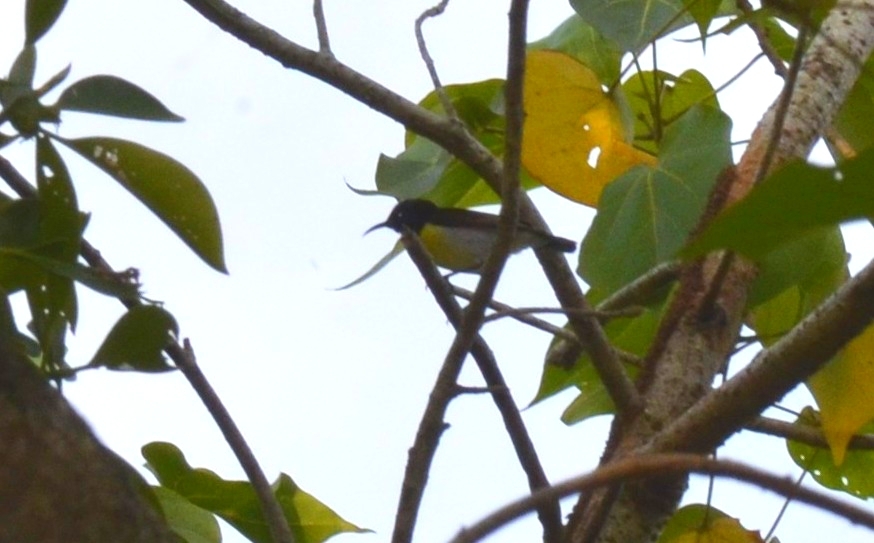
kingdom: Animalia
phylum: Chordata
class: Aves
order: Passeriformes
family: Nectariniidae
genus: Leptocoma
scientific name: Leptocoma zeylonica
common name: Purple-rumped sunbird
